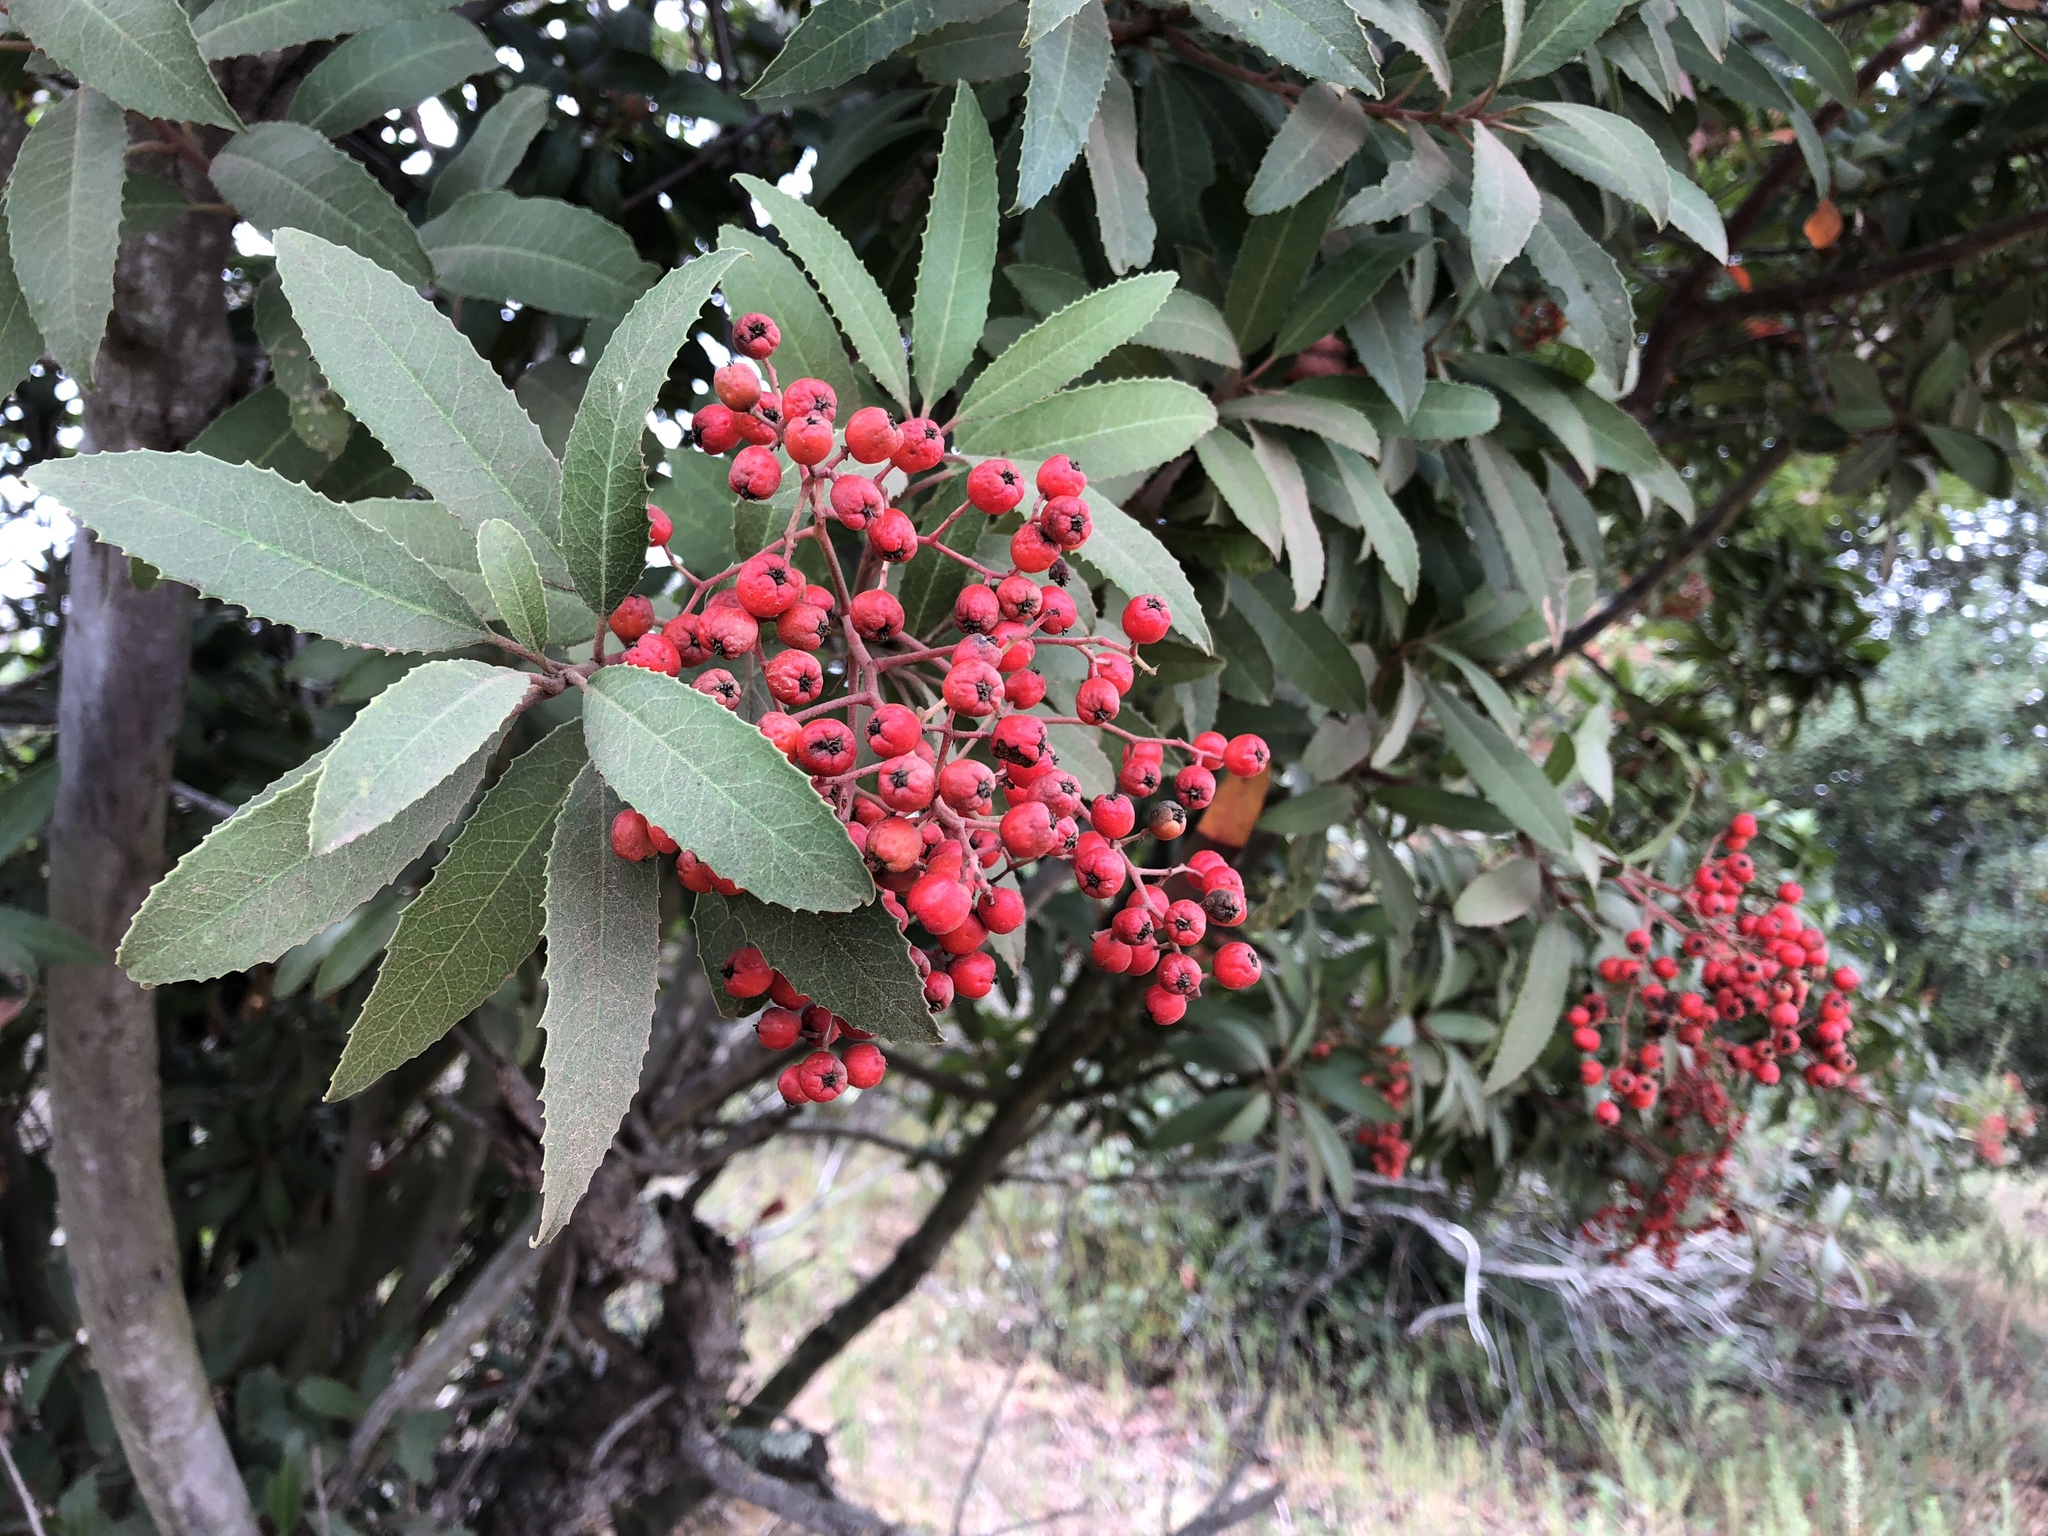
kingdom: Plantae
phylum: Tracheophyta
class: Magnoliopsida
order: Rosales
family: Rosaceae
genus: Heteromeles
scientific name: Heteromeles arbutifolia
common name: California-holly
